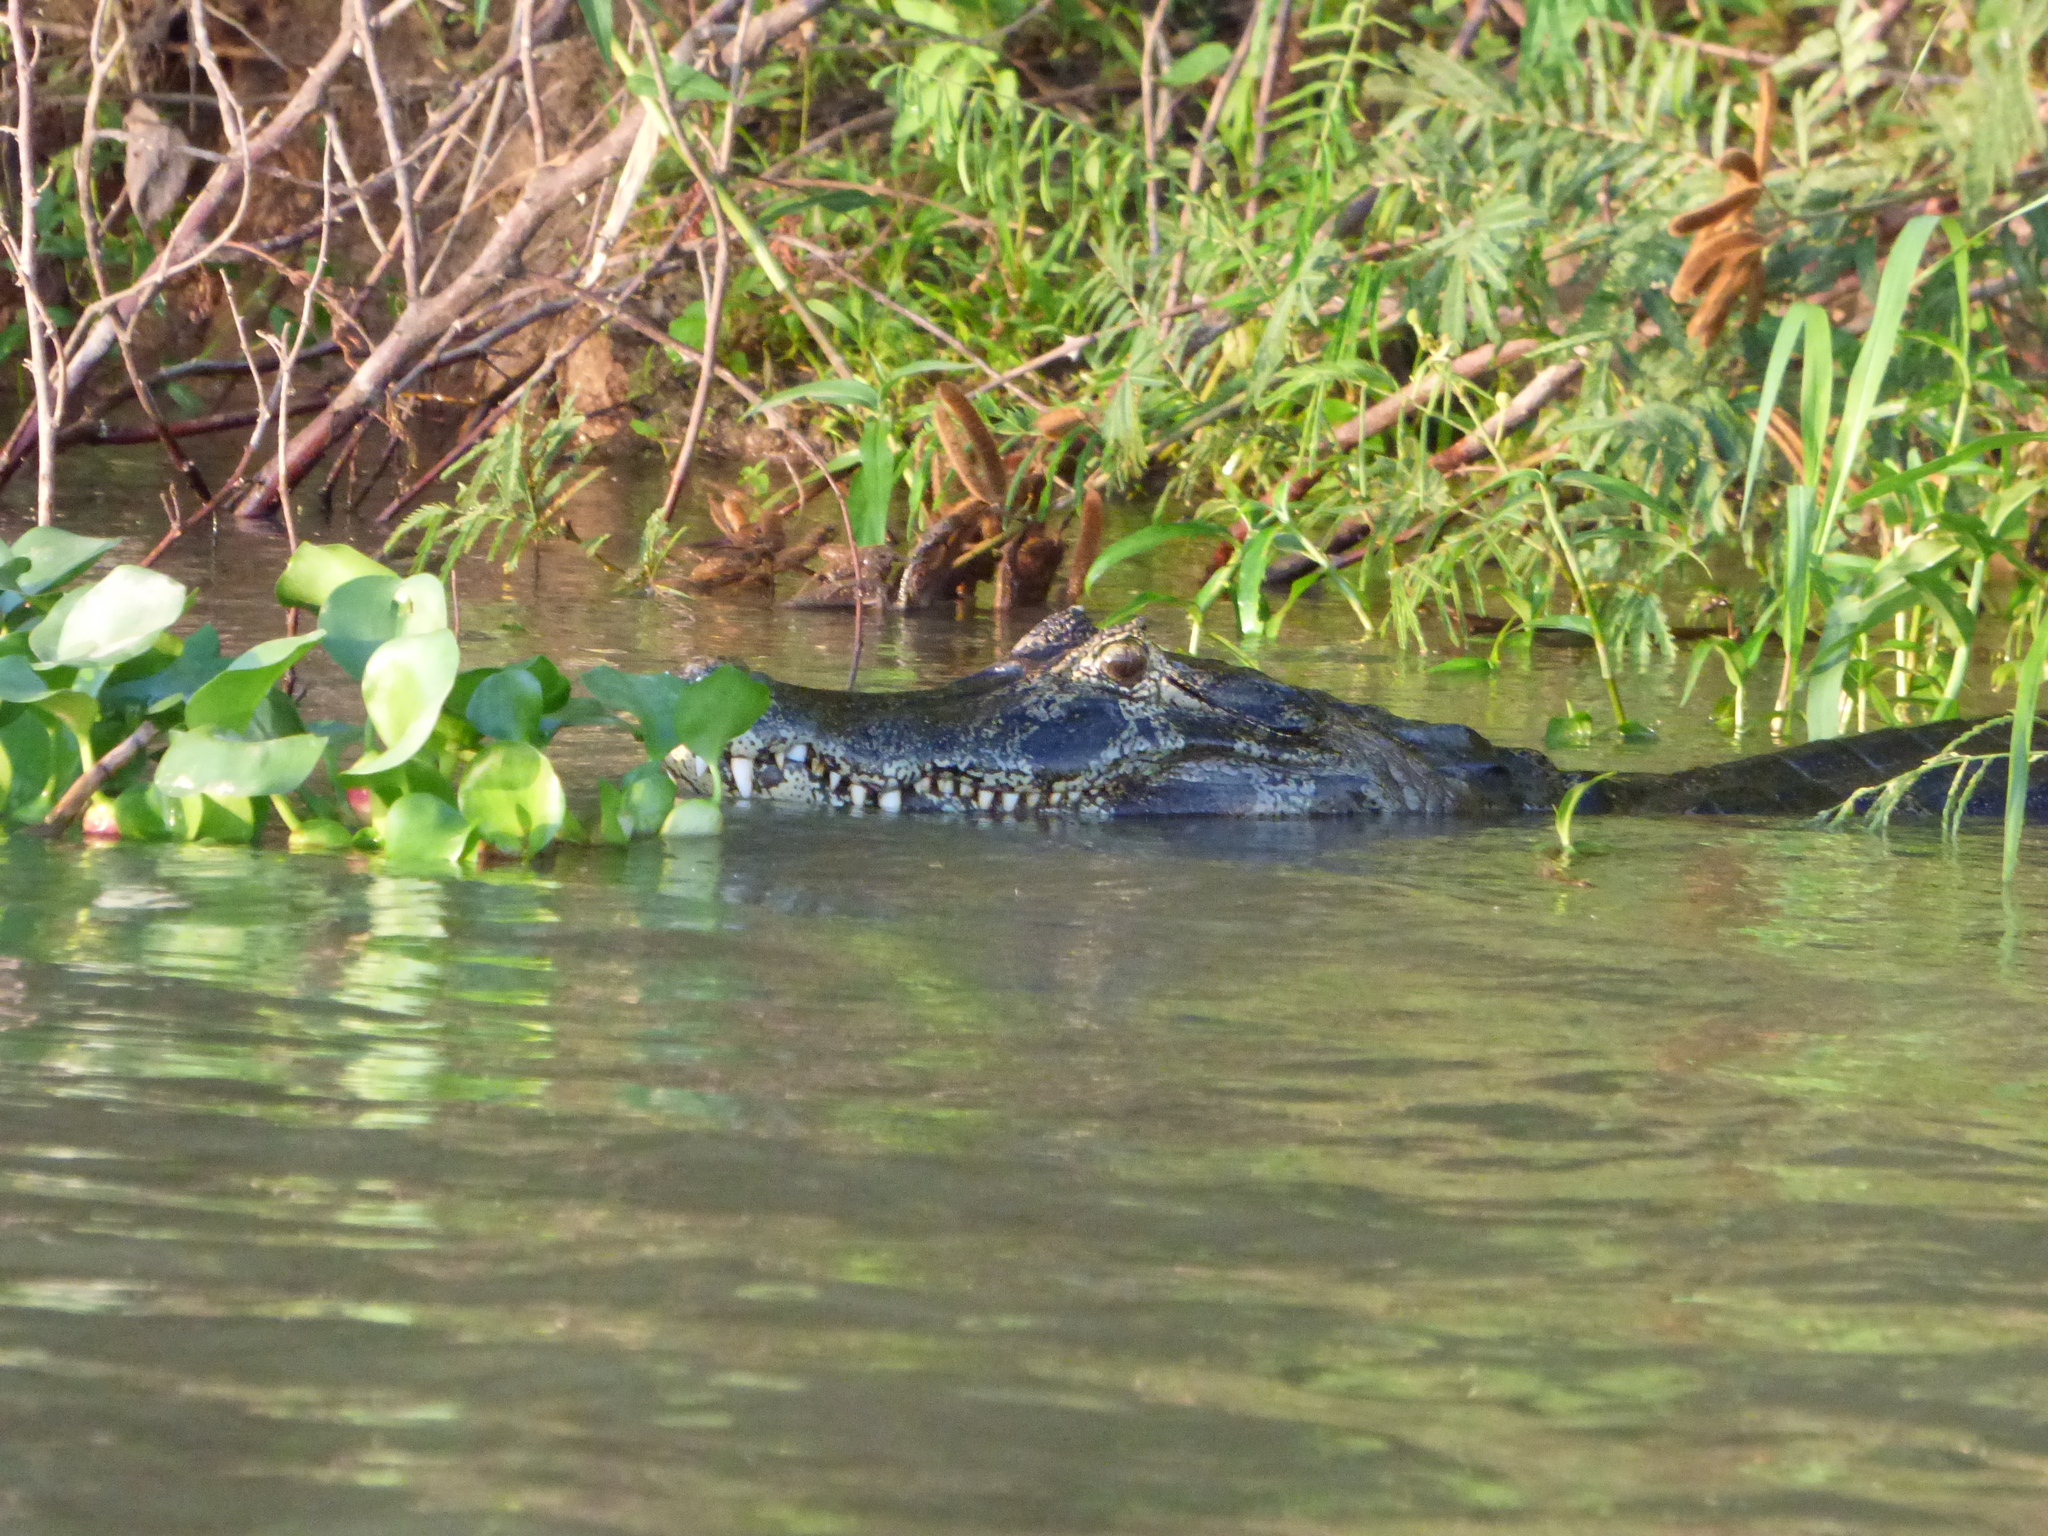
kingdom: Animalia
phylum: Chordata
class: Crocodylia
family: Alligatoridae
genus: Caiman
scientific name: Caiman yacare
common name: Yacare caiman
